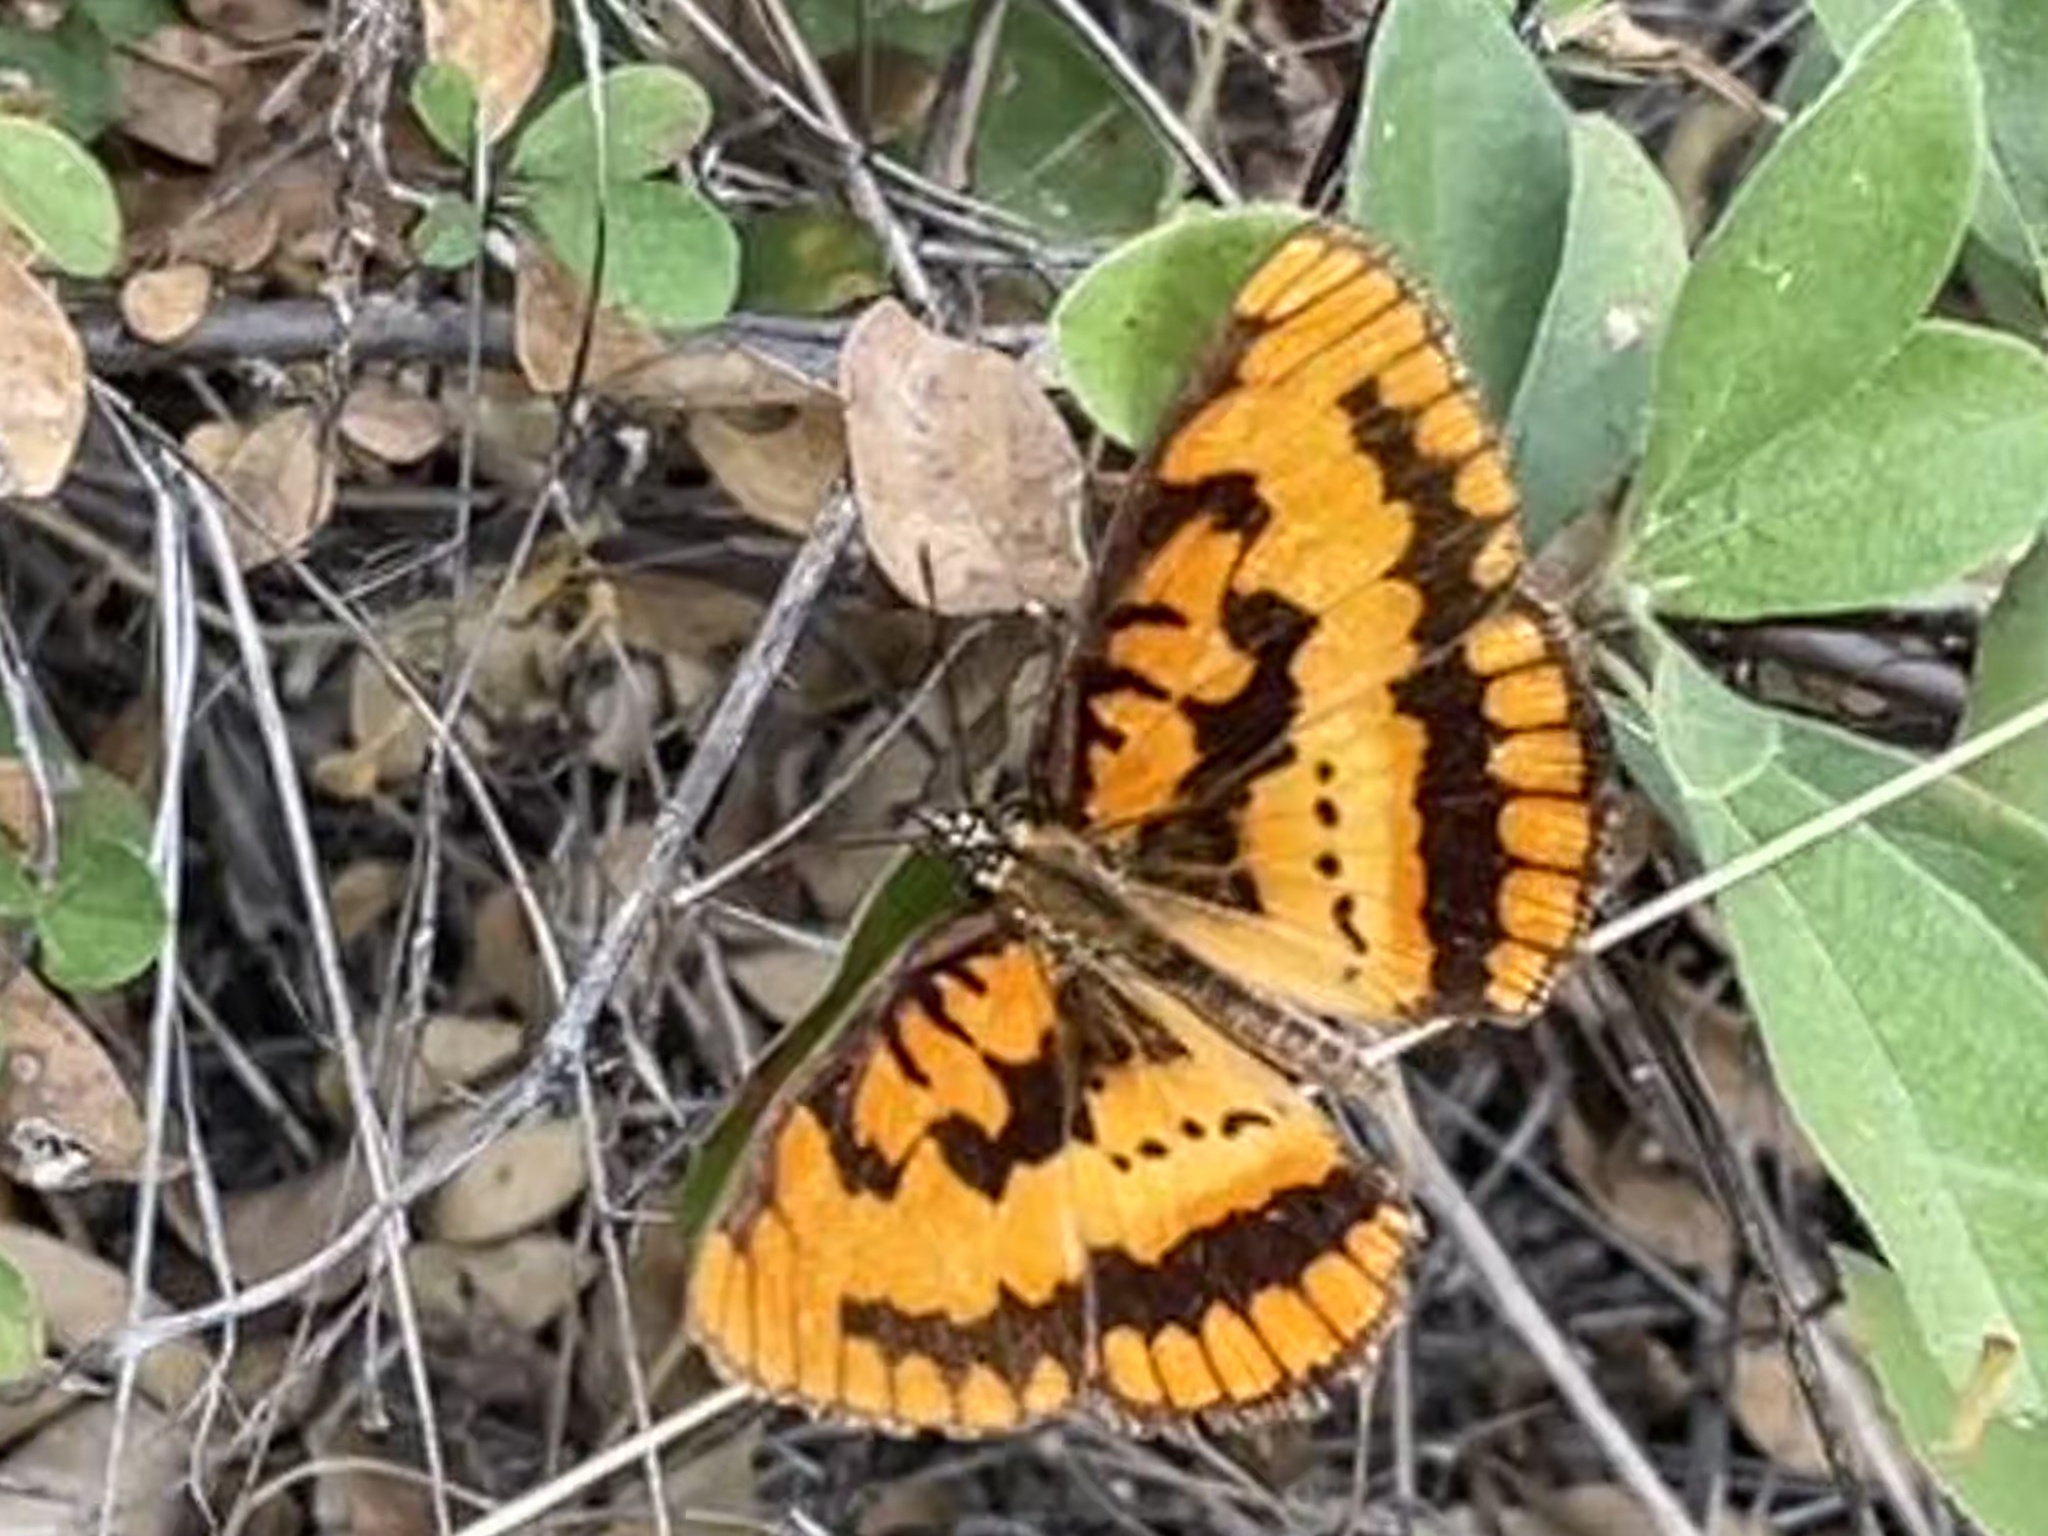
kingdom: Animalia
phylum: Arthropoda
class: Insecta
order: Lepidoptera
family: Nymphalidae
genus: Byblia
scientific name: Byblia ilithyia
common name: Spotted joker
